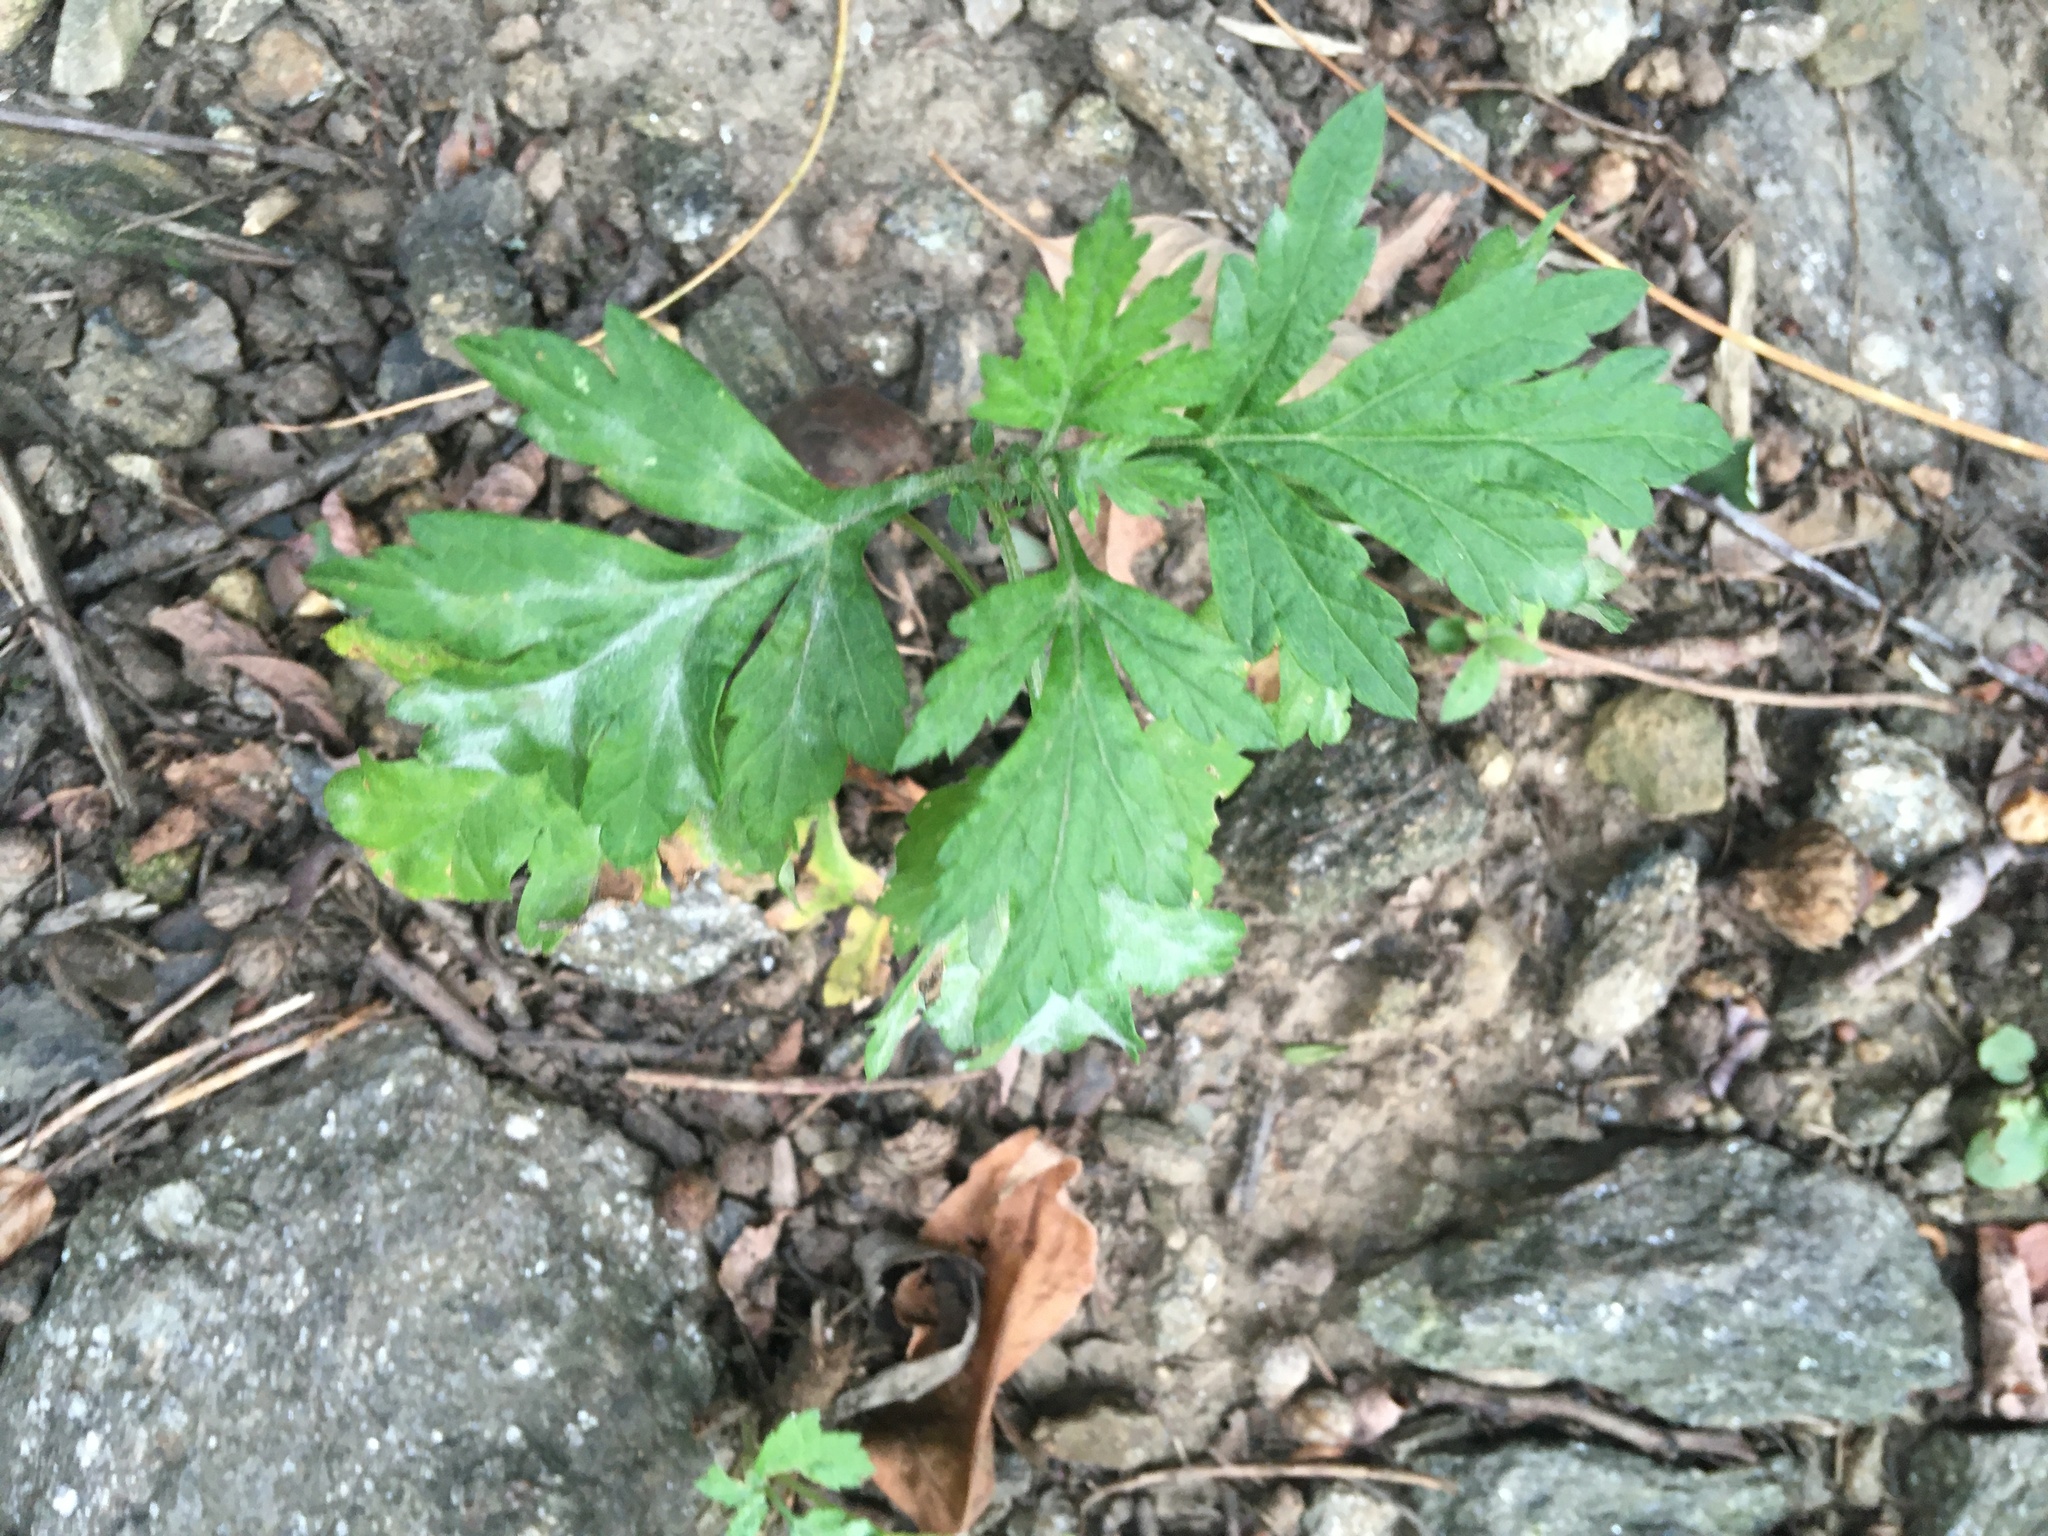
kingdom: Plantae
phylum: Tracheophyta
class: Magnoliopsida
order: Asterales
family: Asteraceae
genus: Artemisia
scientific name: Artemisia vulgaris
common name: Mugwort
